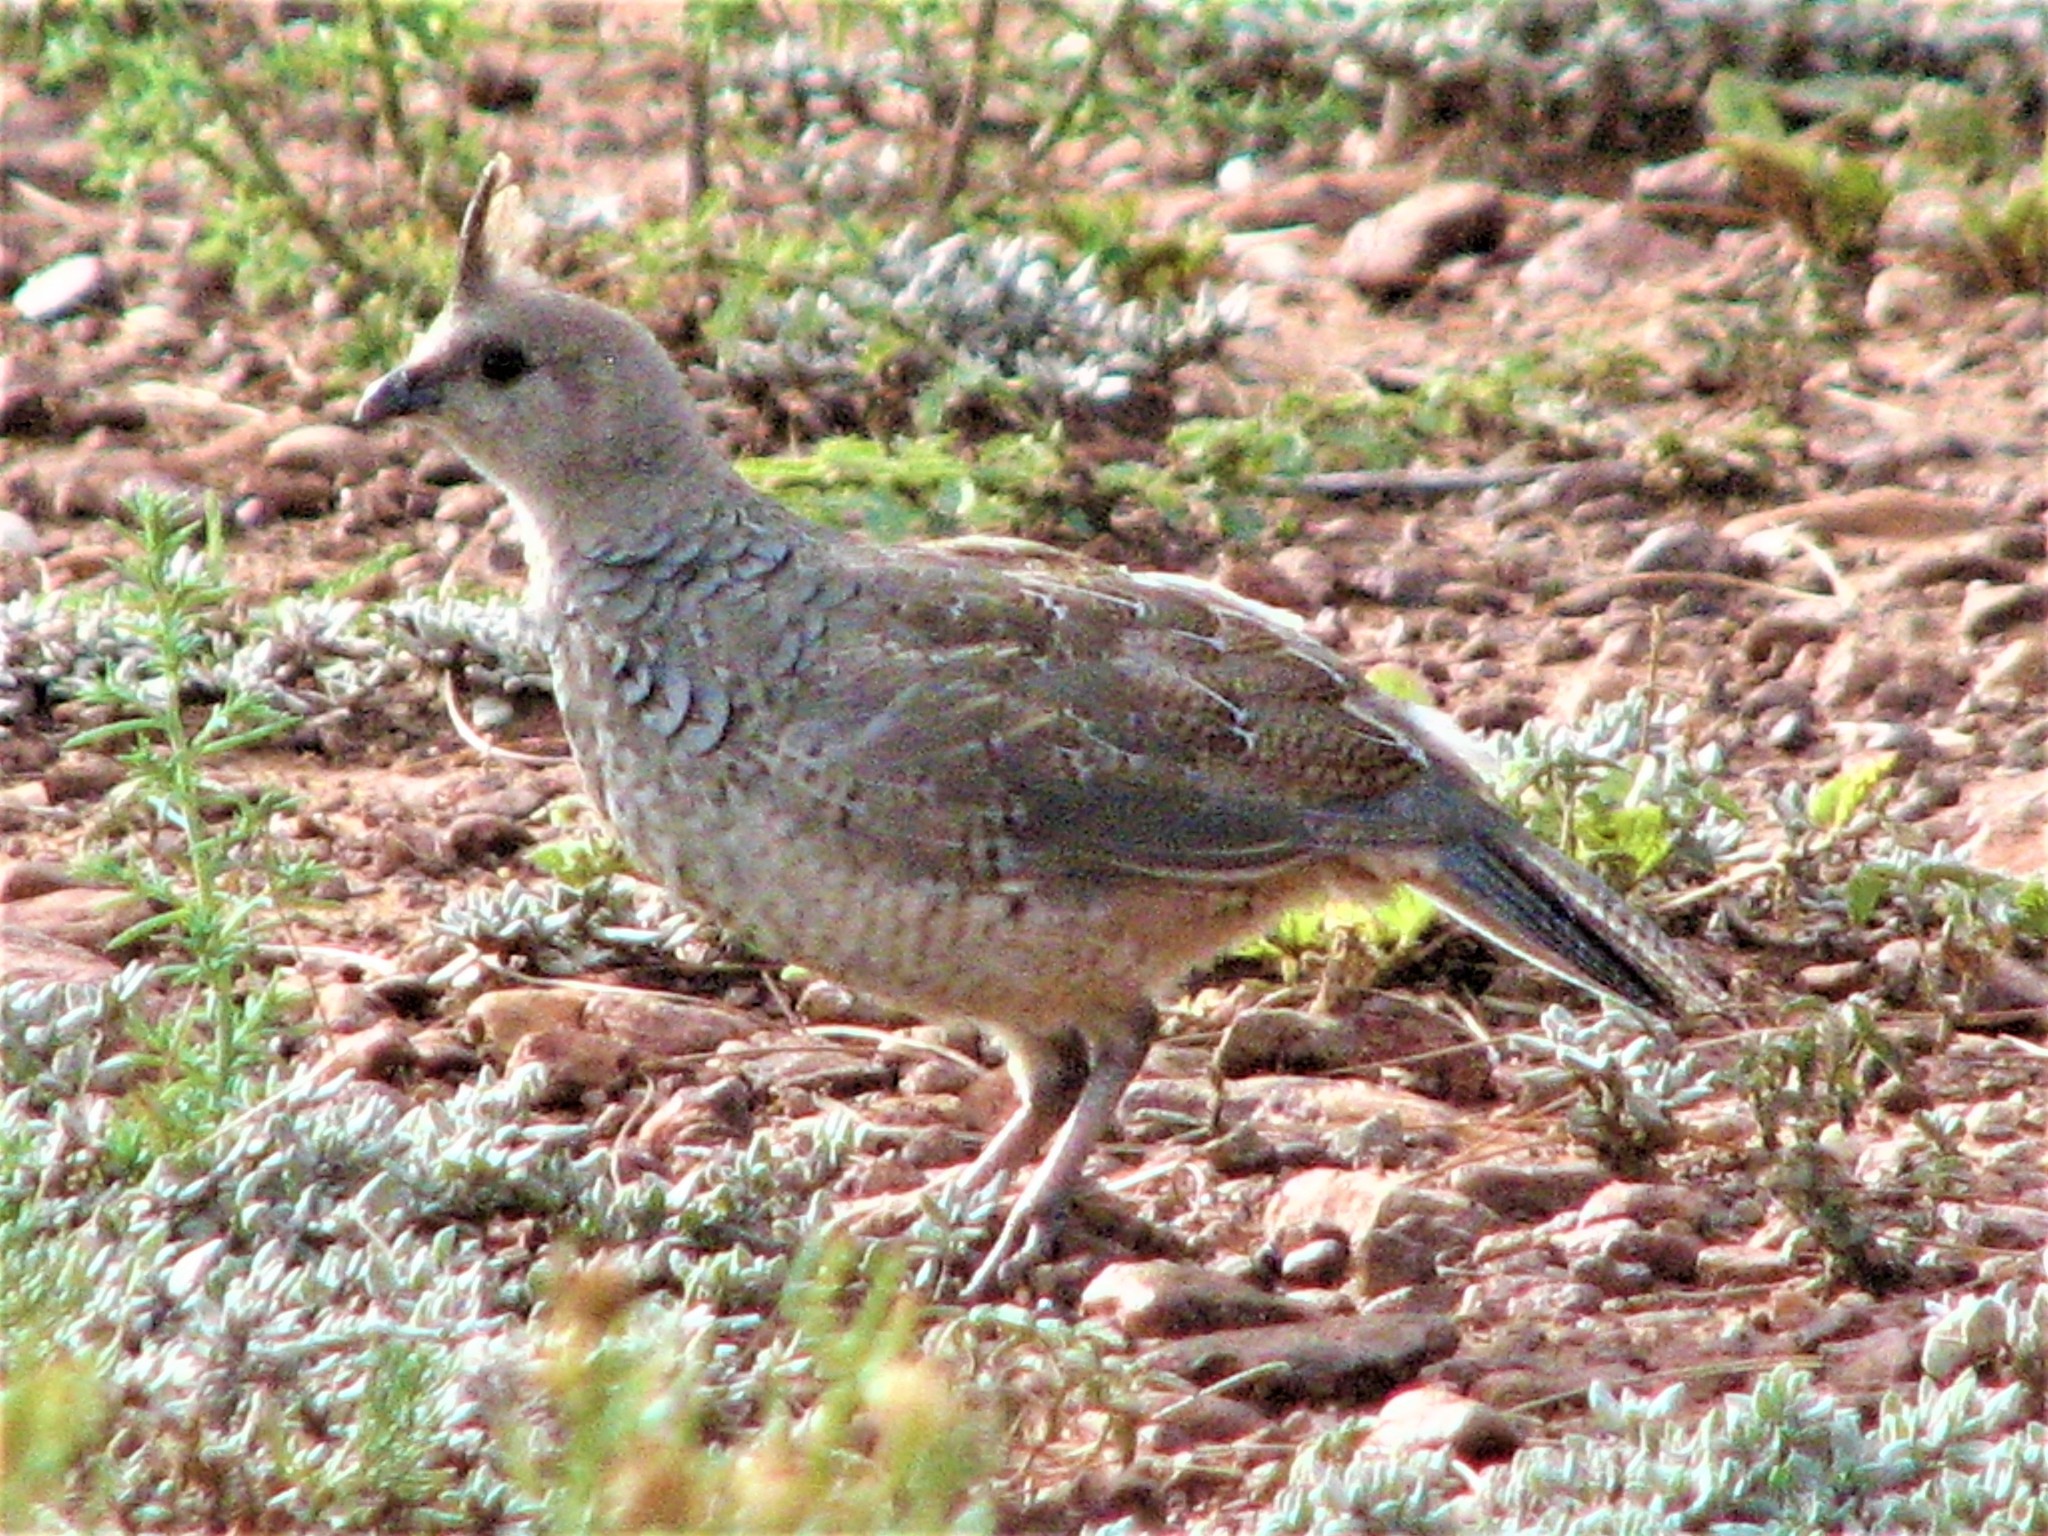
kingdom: Animalia
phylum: Chordata
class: Aves
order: Galliformes
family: Odontophoridae
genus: Callipepla
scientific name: Callipepla squamata
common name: Scaled quail
